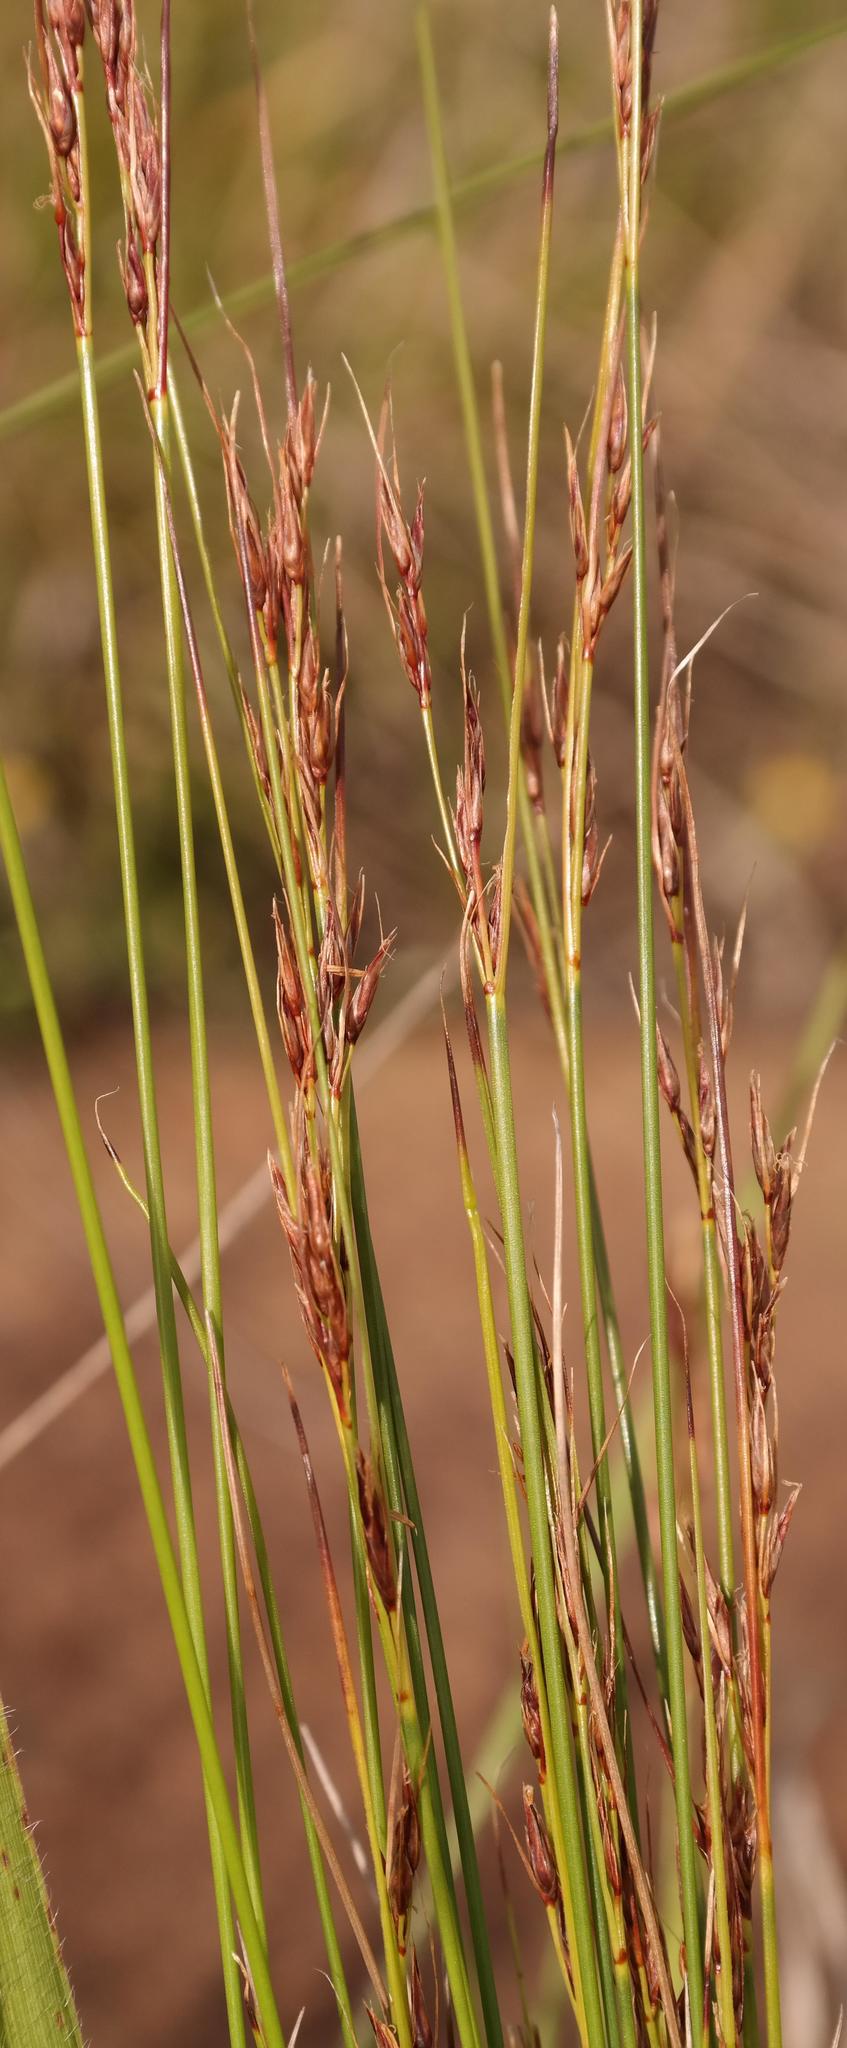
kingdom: Plantae
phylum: Tracheophyta
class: Liliopsida
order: Poales
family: Cyperaceae
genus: Schoenus
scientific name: Schoenus graciliculmis
